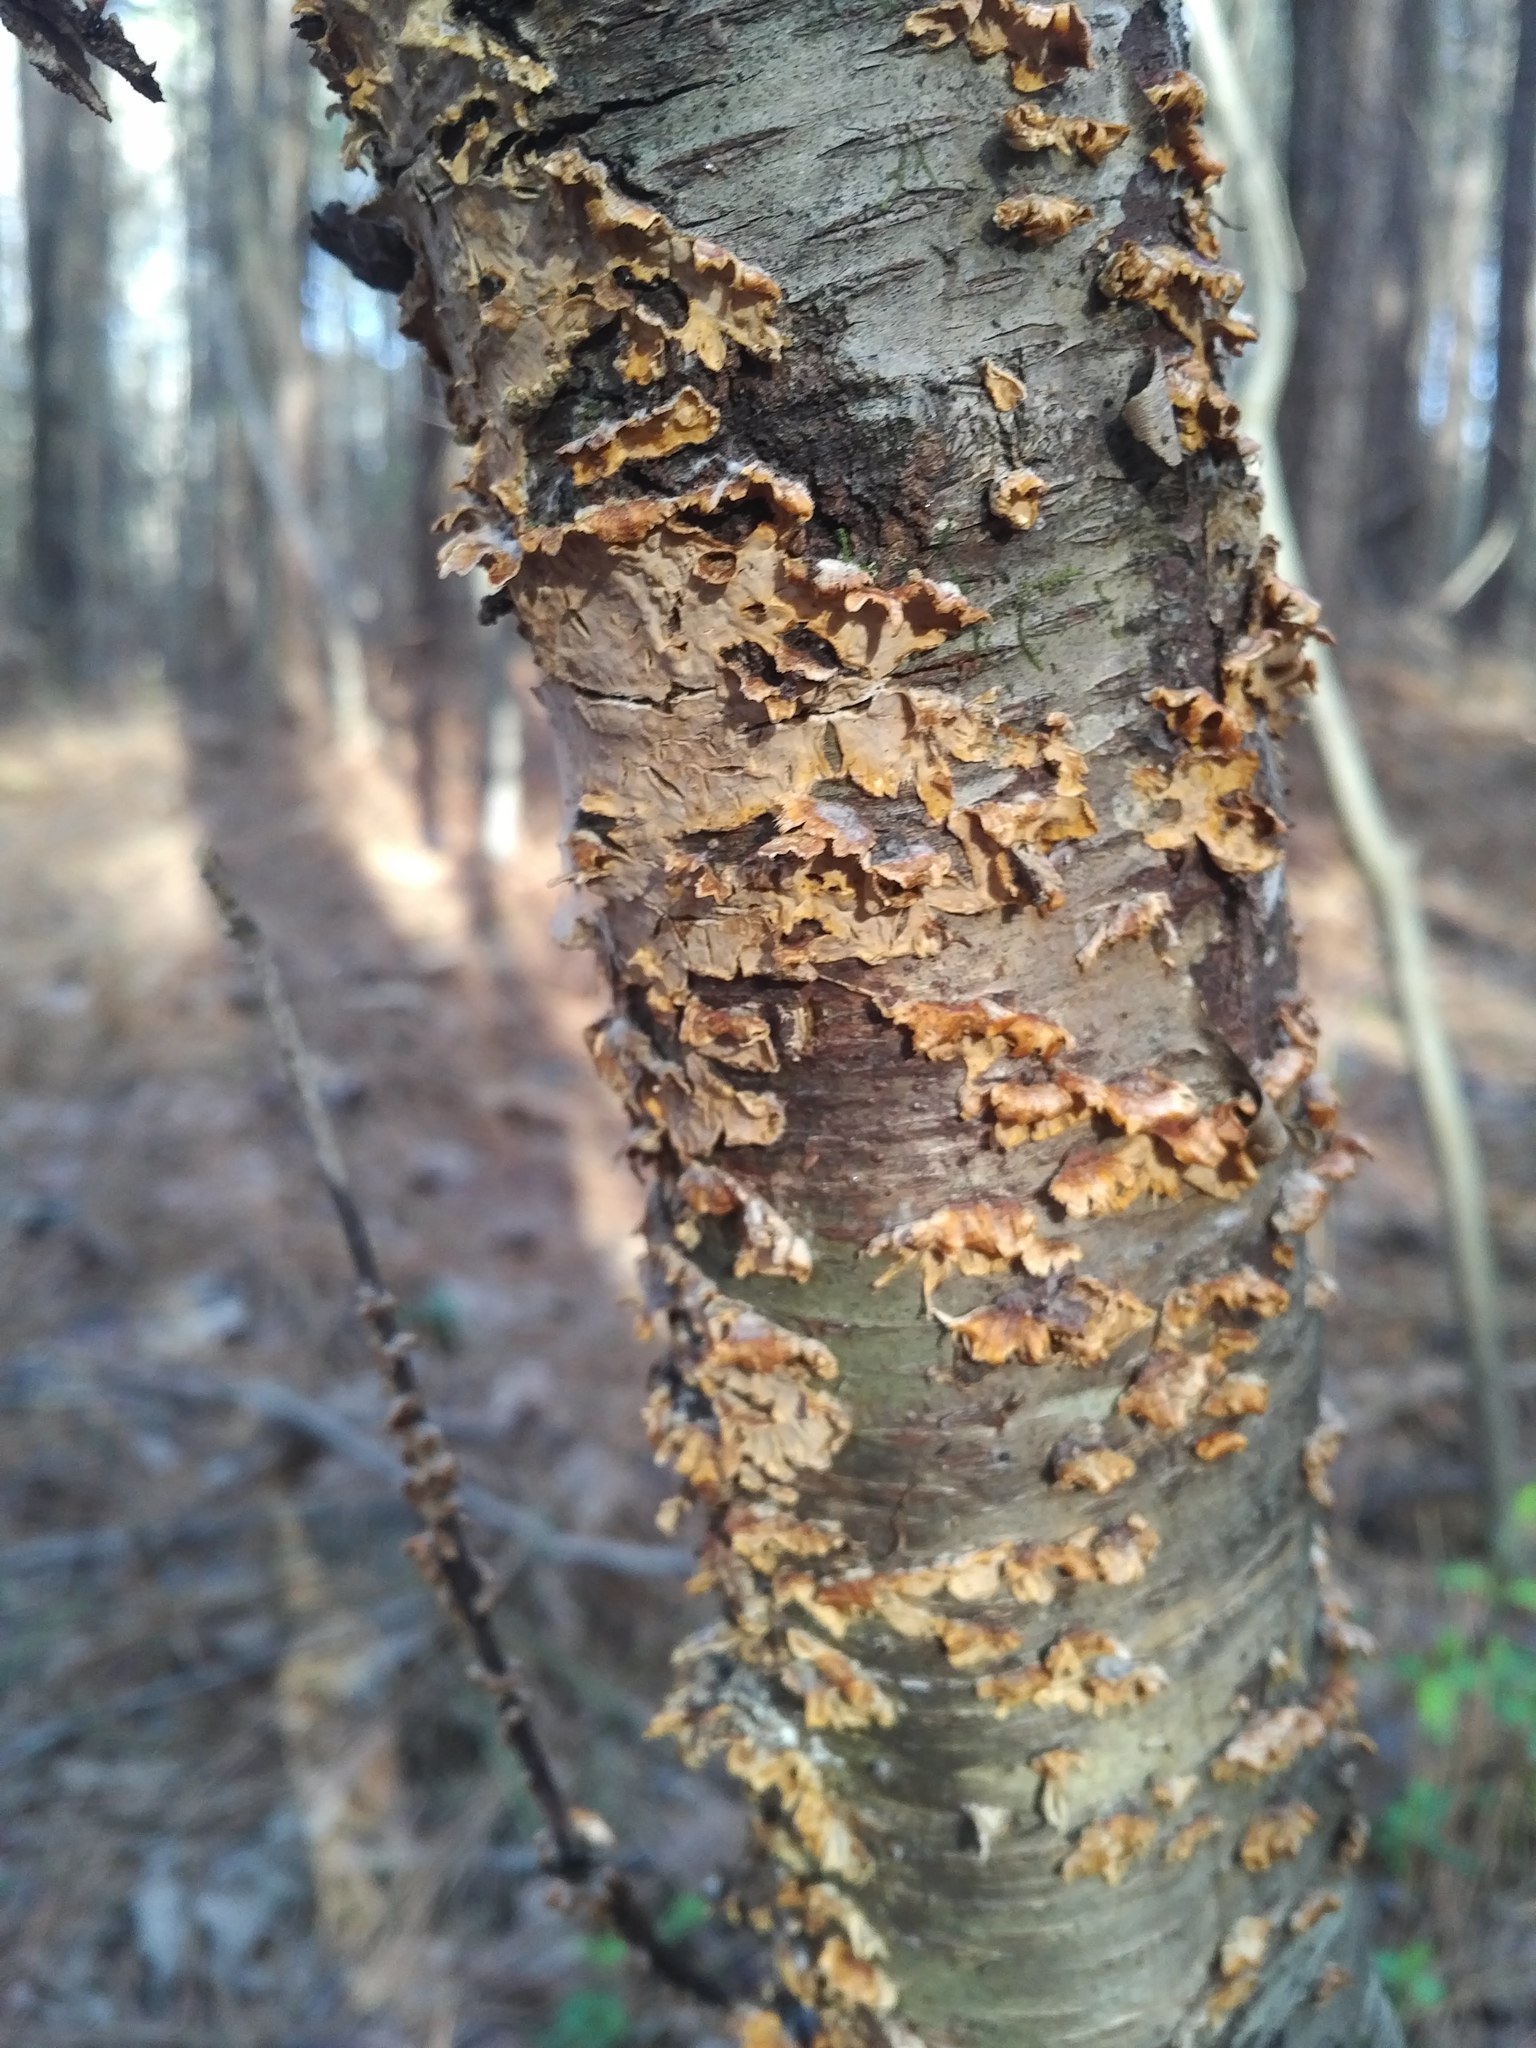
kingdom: Fungi
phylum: Basidiomycota
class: Agaricomycetes
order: Russulales
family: Stereaceae
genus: Stereum
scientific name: Stereum complicatum
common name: Crowded parchment
